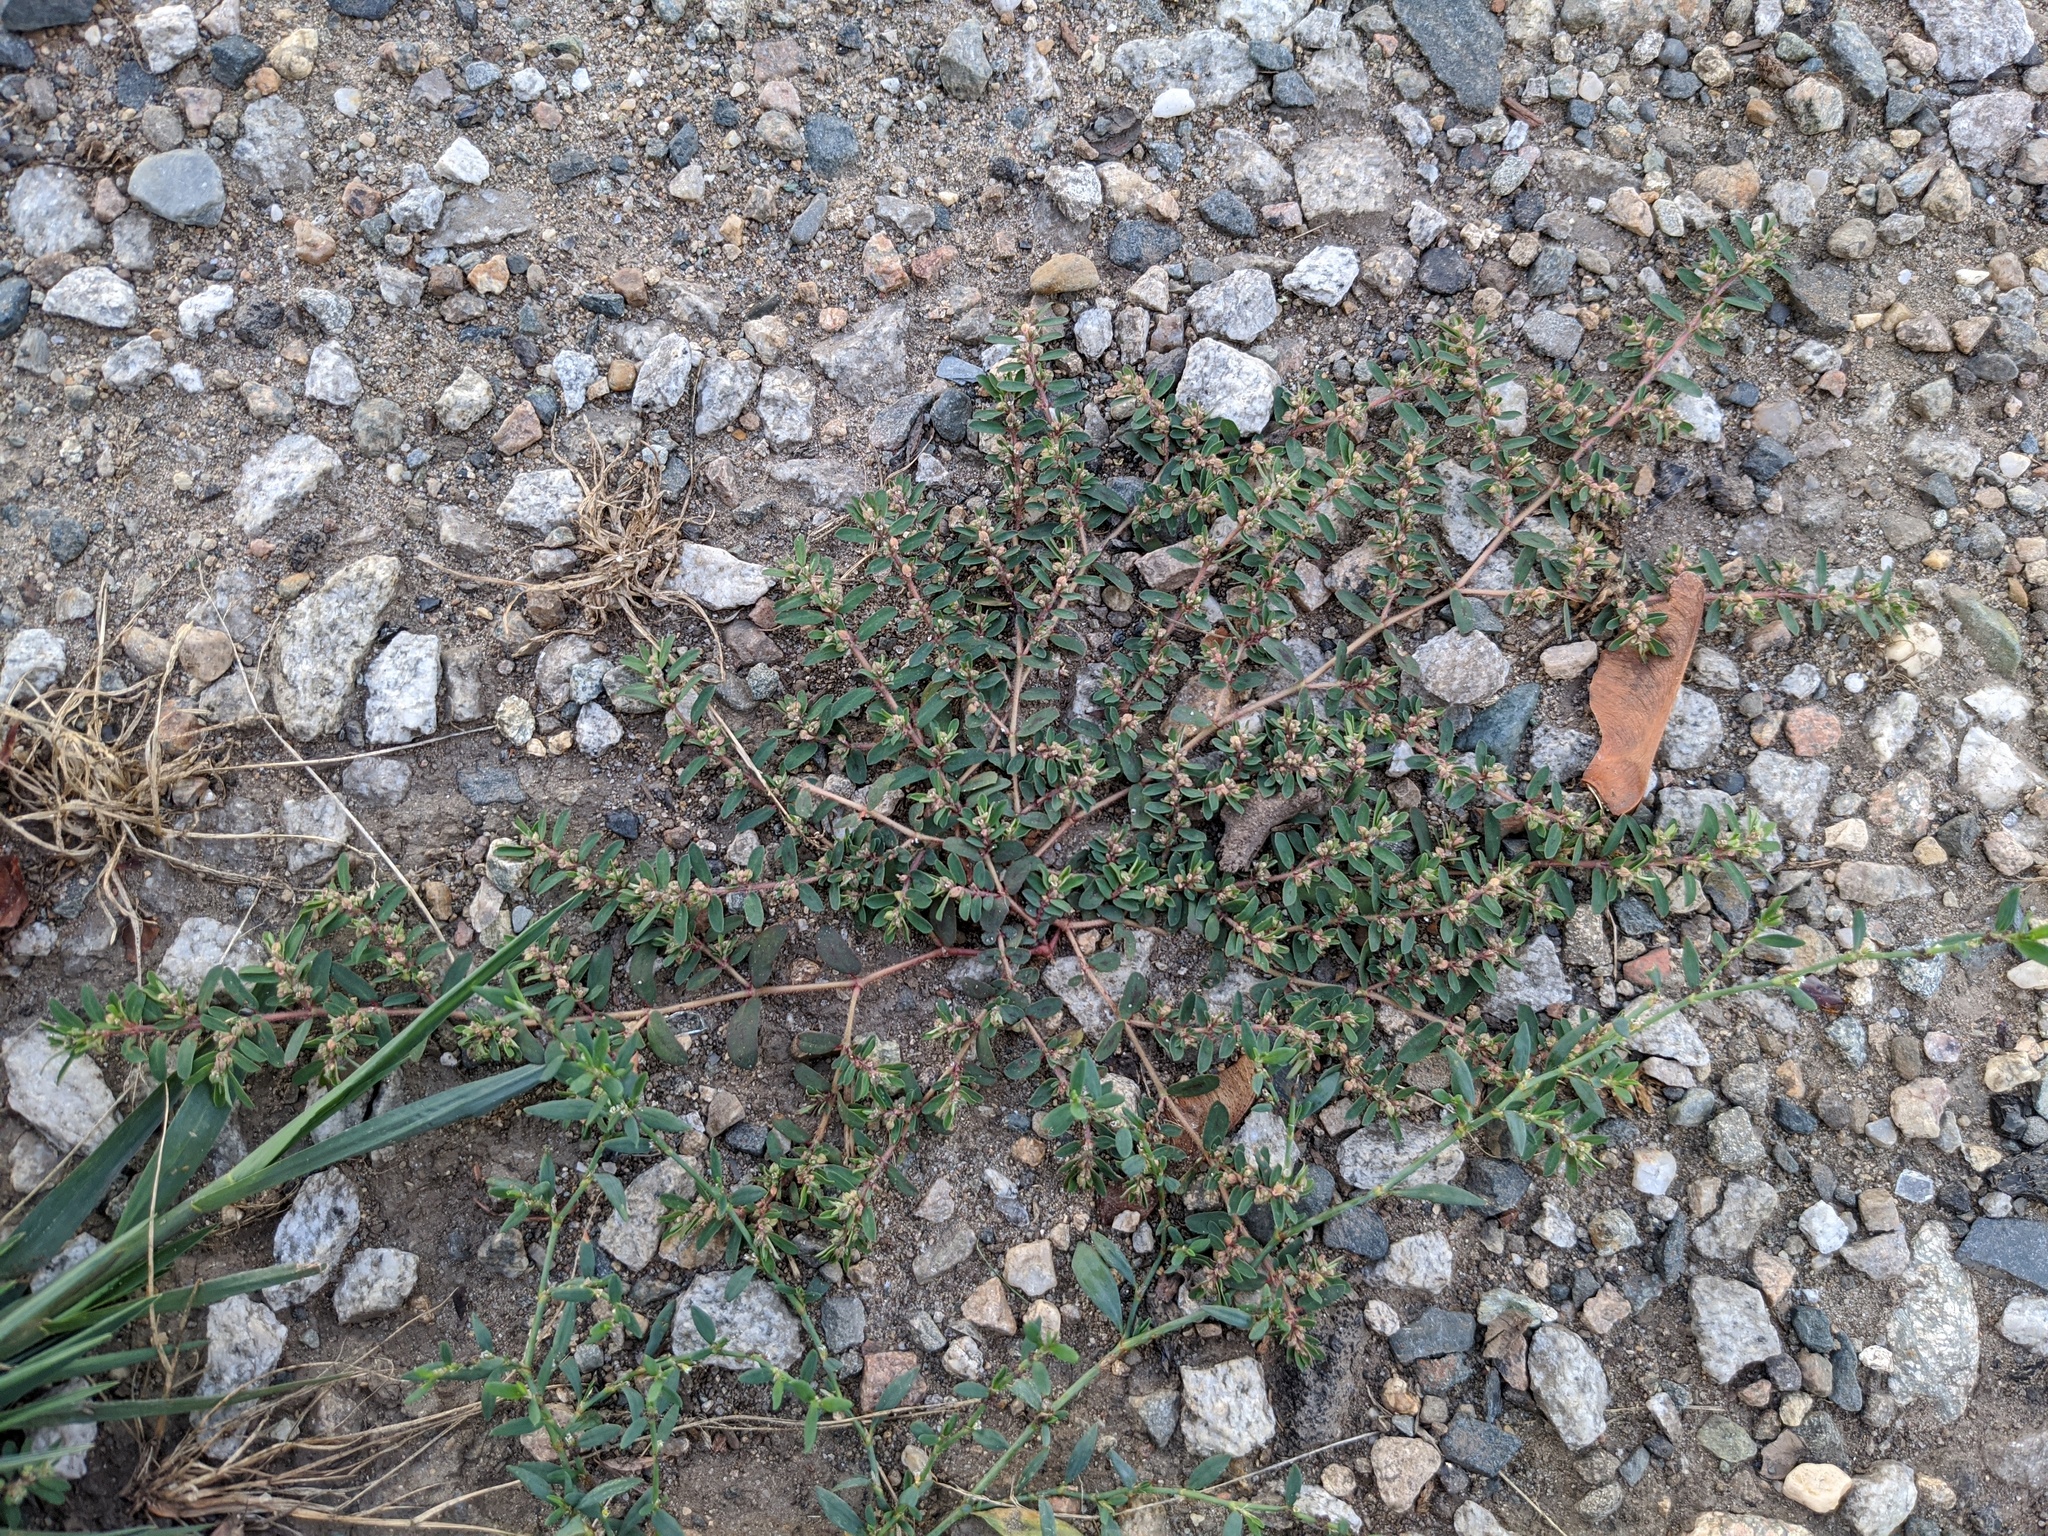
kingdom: Plantae
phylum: Tracheophyta
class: Magnoliopsida
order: Malpighiales
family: Euphorbiaceae
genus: Euphorbia
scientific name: Euphorbia maculata
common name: Spotted spurge
